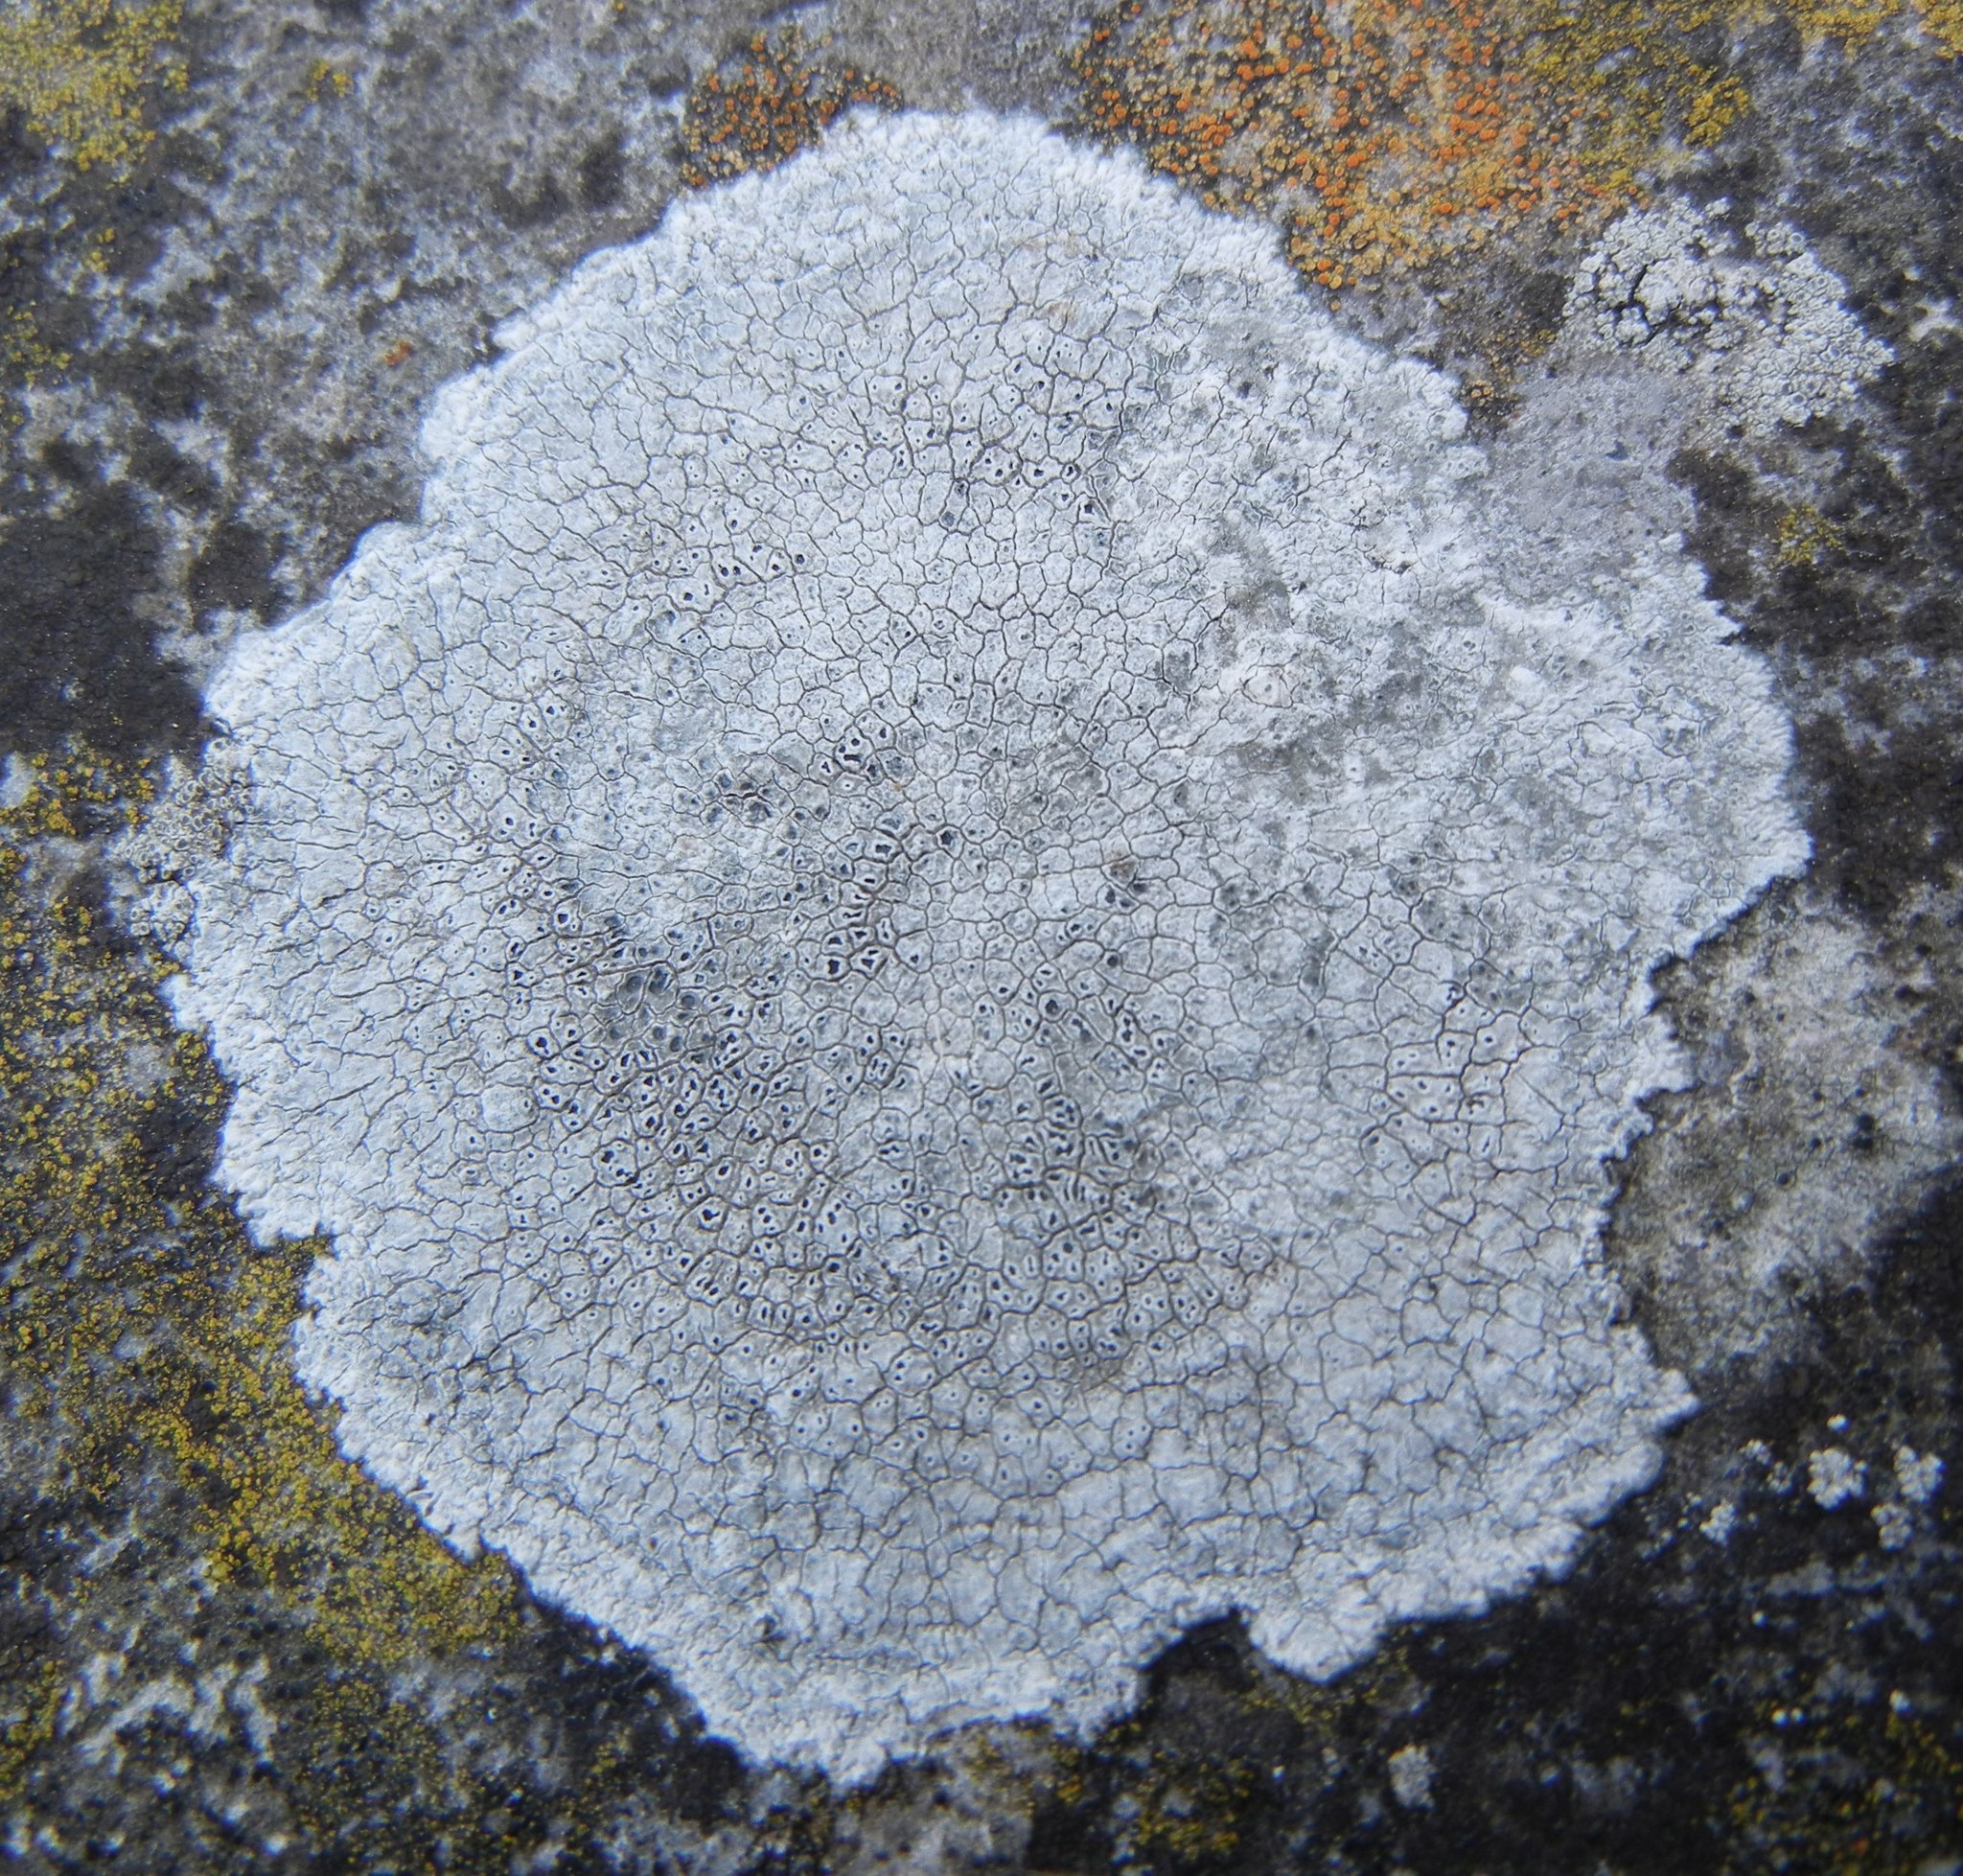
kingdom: Fungi
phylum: Ascomycota
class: Lecanoromycetes
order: Pertusariales
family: Megasporaceae
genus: Circinaria
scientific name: Circinaria calcarea
